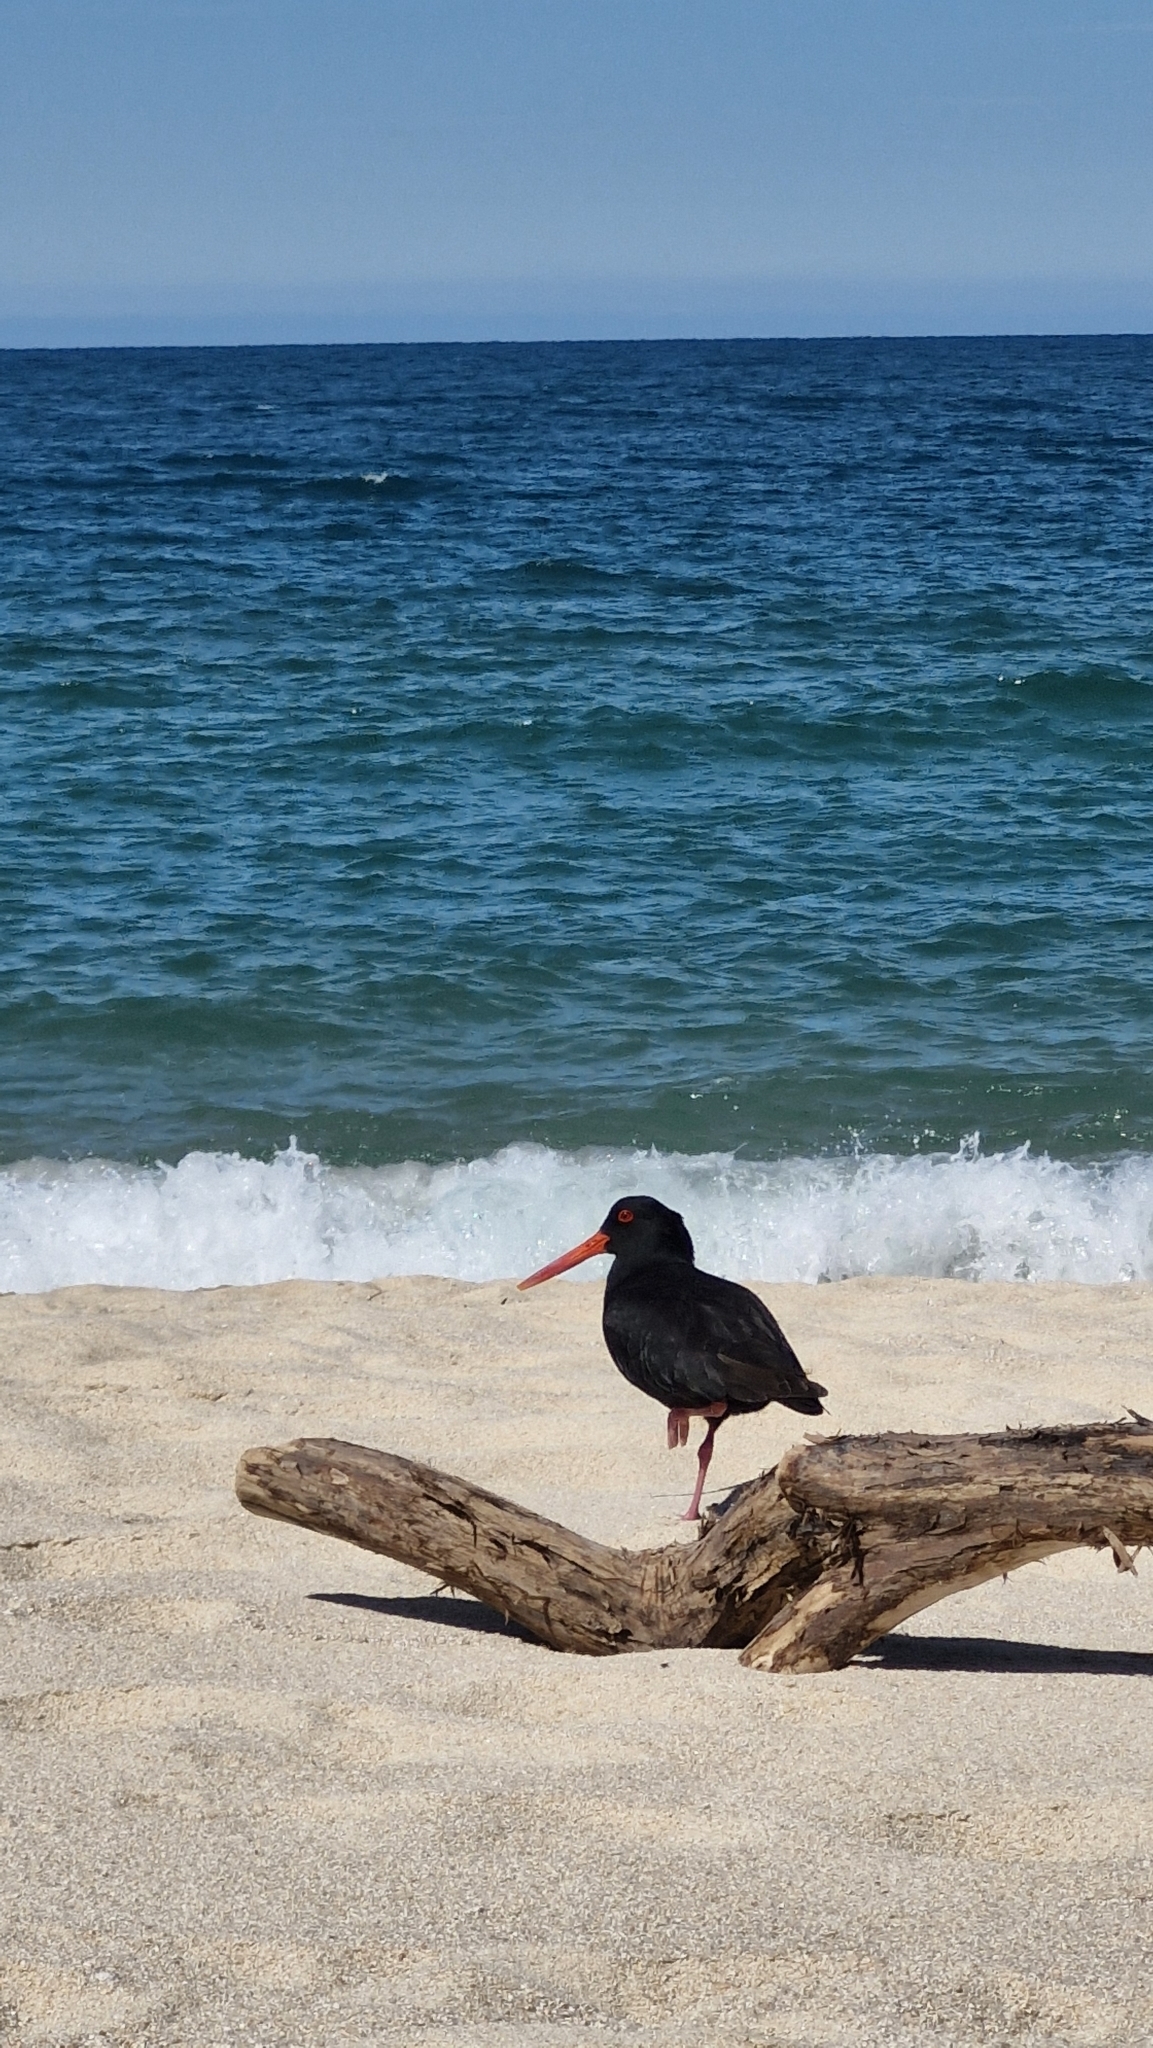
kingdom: Animalia
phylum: Chordata
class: Aves
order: Charadriiformes
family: Haematopodidae
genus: Haematopus
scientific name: Haematopus unicolor
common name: Variable oystercatcher
